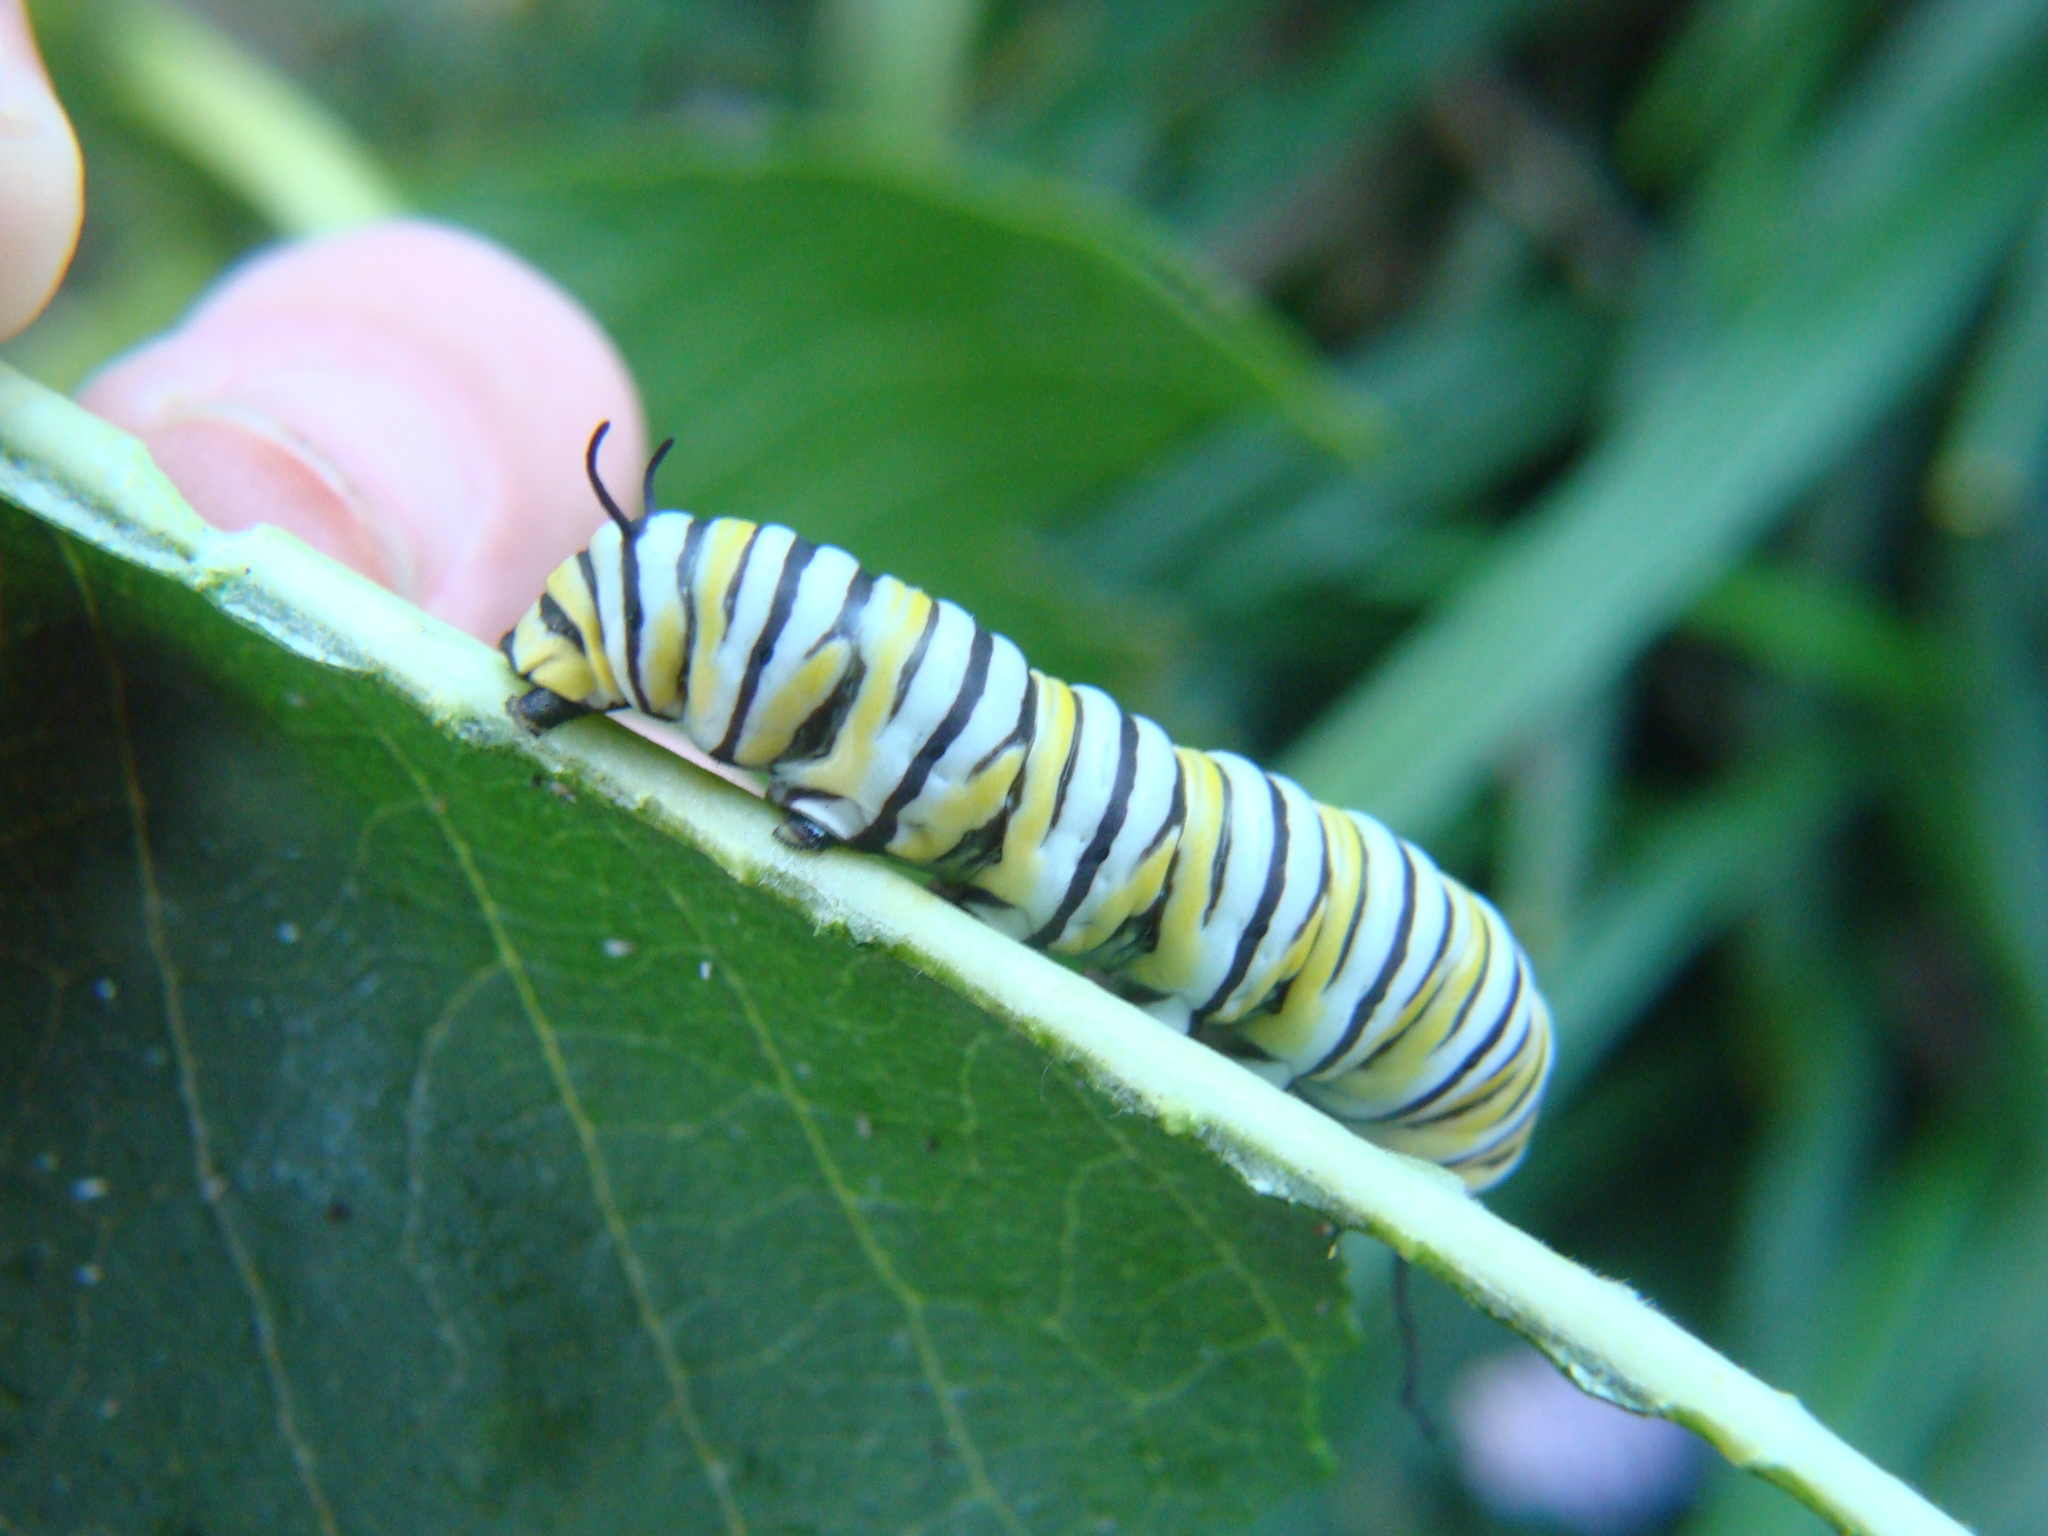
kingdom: Animalia
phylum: Arthropoda
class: Insecta
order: Lepidoptera
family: Nymphalidae
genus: Danaus
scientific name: Danaus plexippus
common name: Monarch
